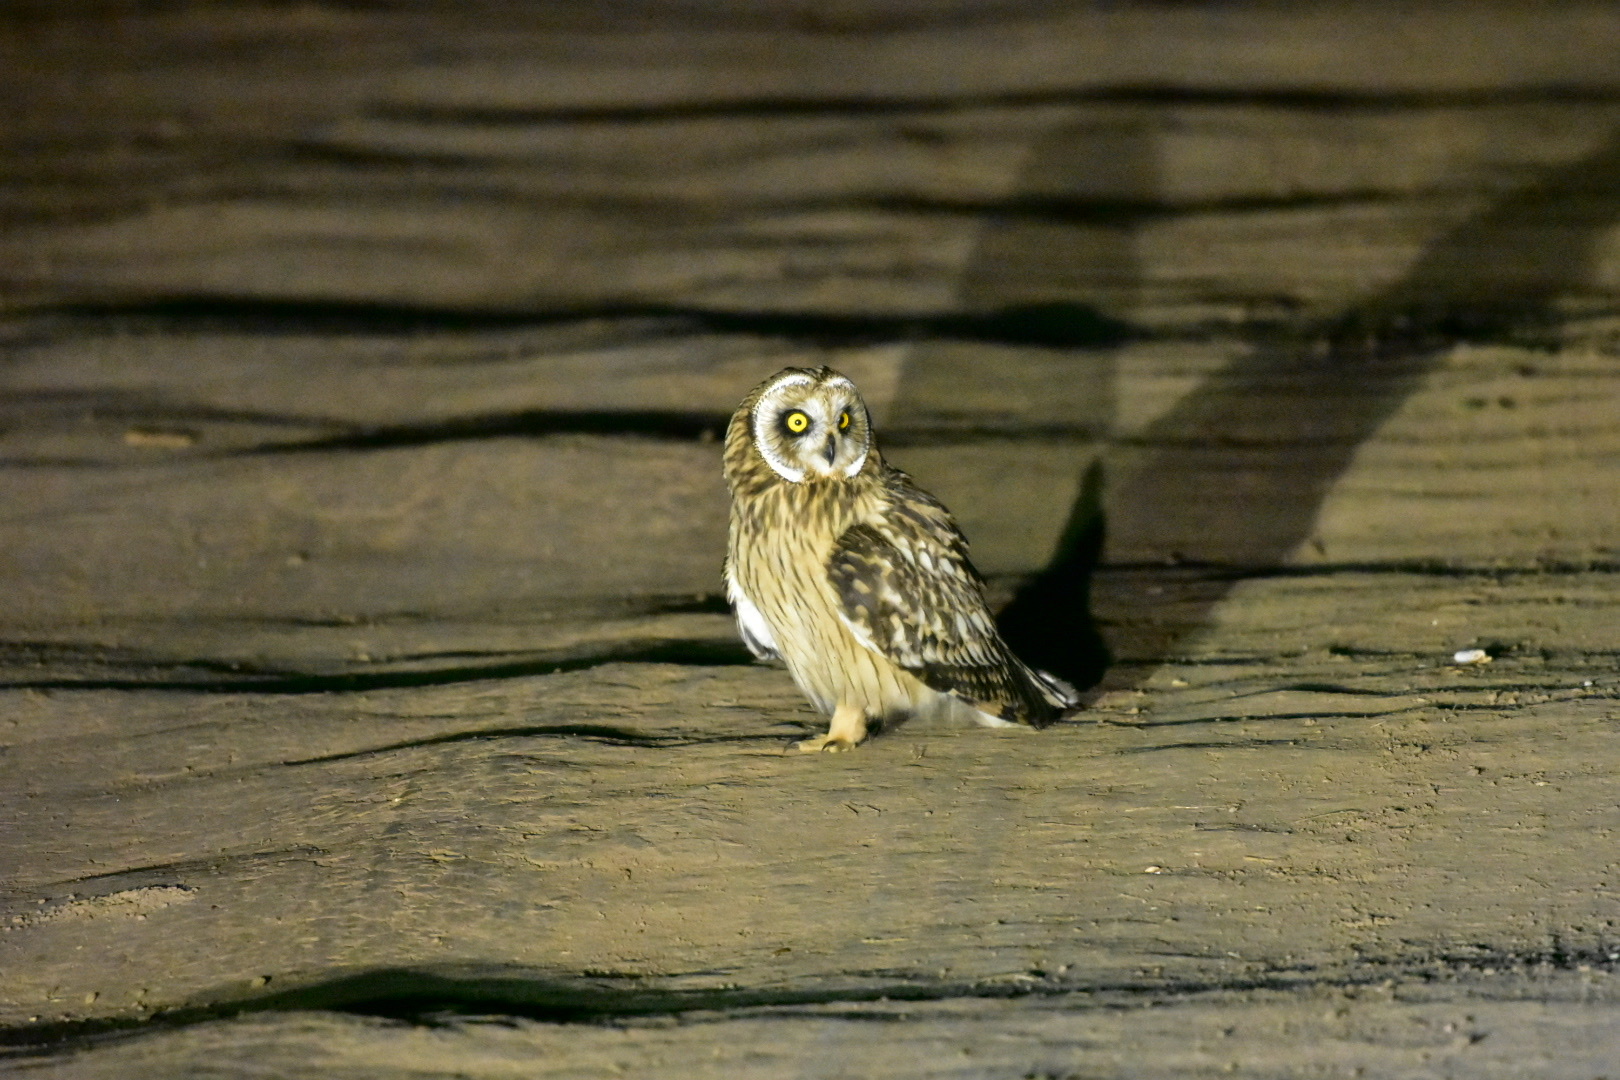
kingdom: Animalia
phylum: Chordata
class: Aves
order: Strigiformes
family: Strigidae
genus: Asio
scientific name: Asio flammeus
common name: Short-eared owl
